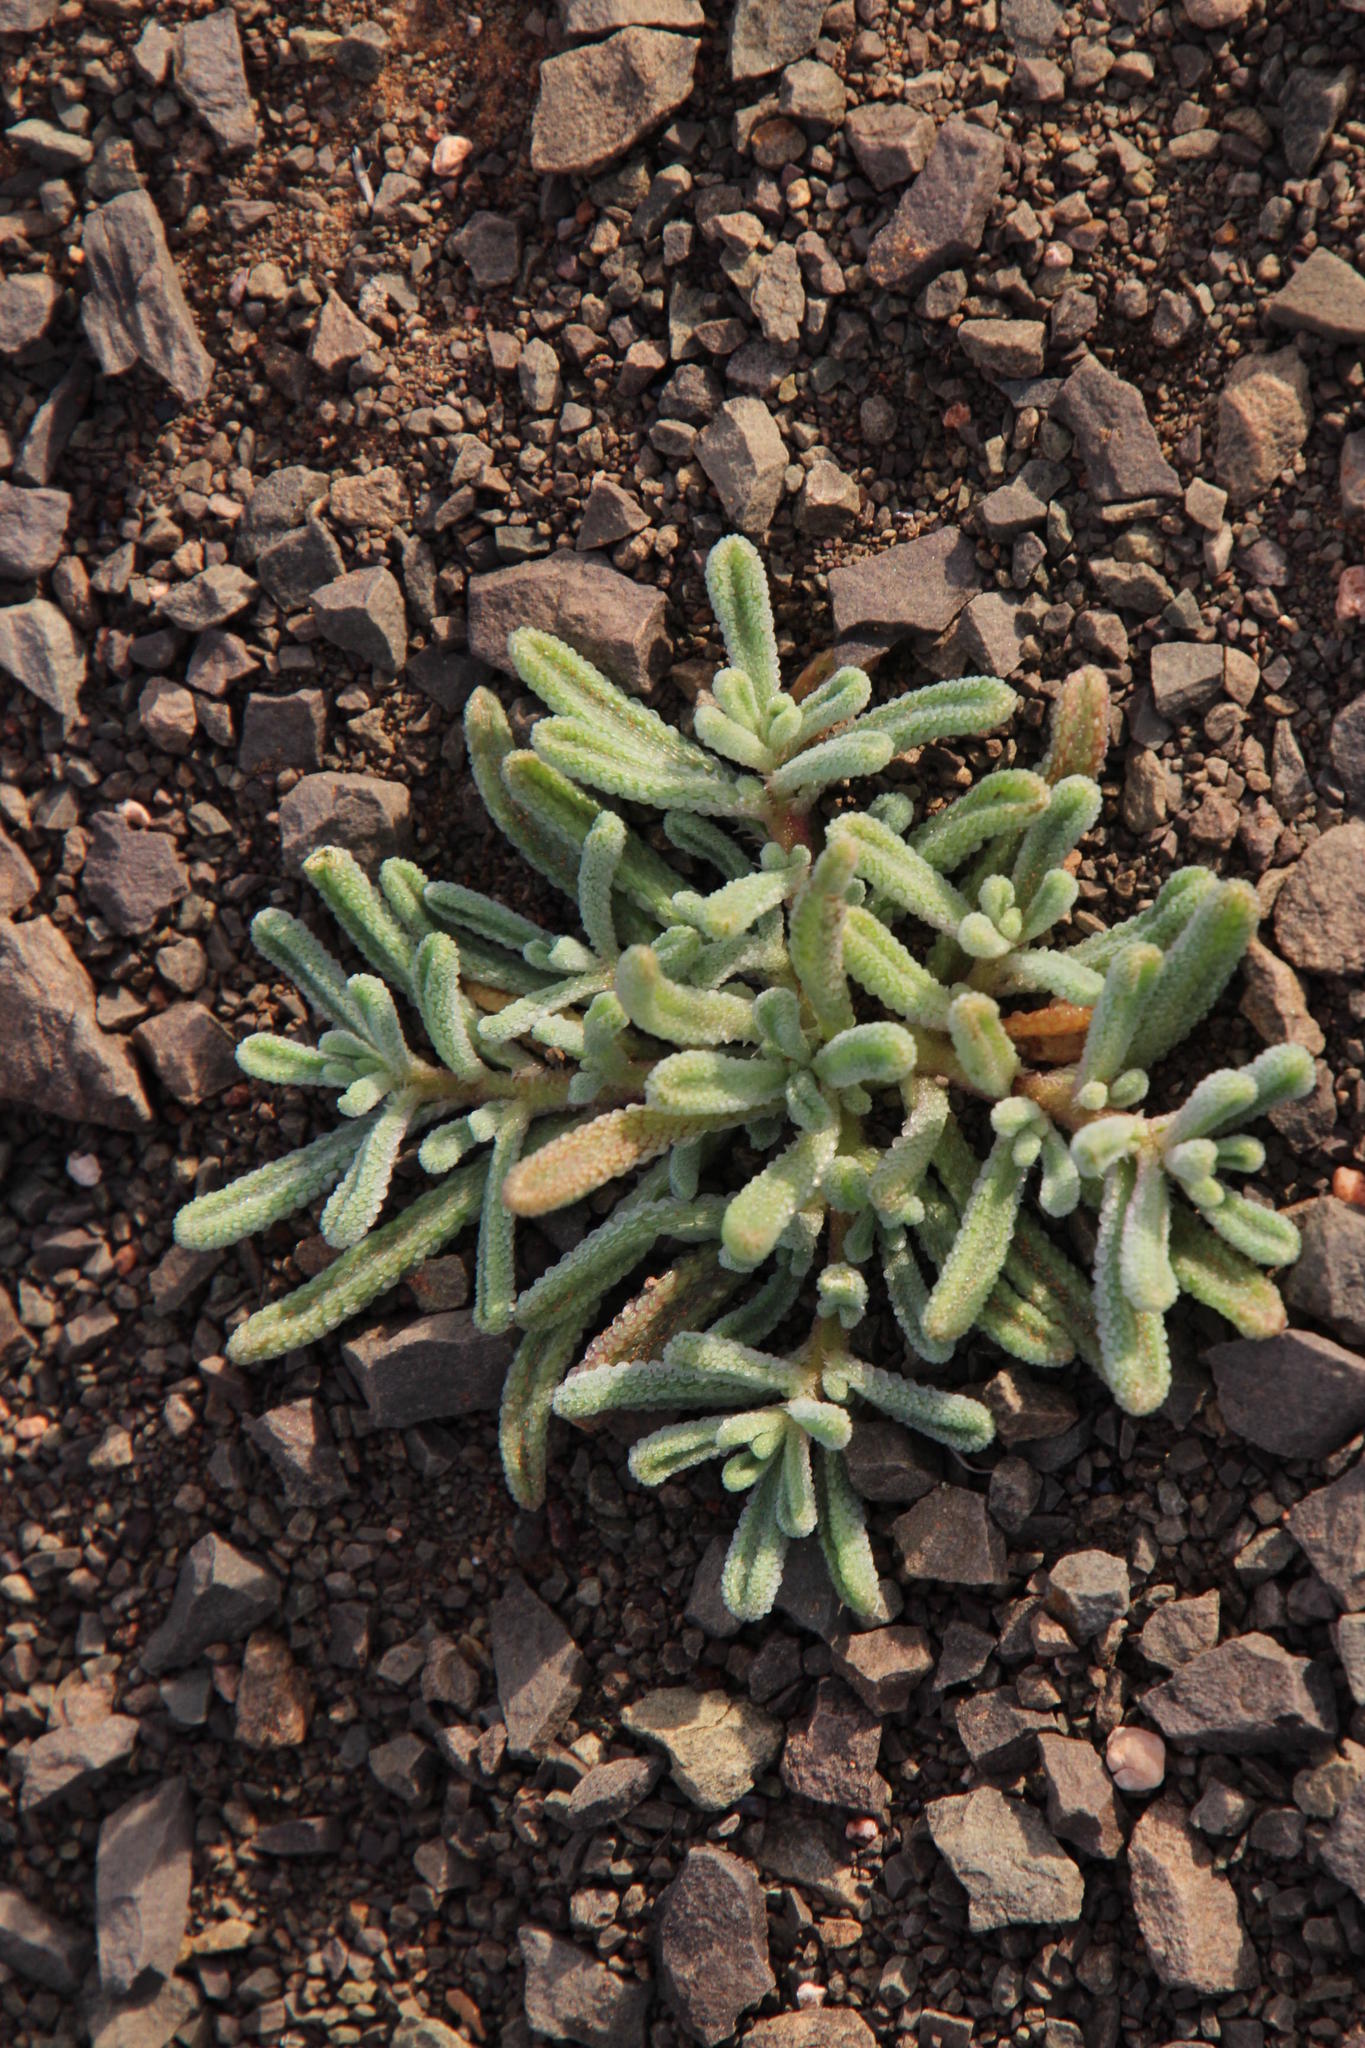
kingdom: Plantae
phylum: Tracheophyta
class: Magnoliopsida
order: Caryophyllales
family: Aizoaceae
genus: Mesembryanthemum
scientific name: Mesembryanthemum nodiflorum
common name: Slenderleaf iceplant
